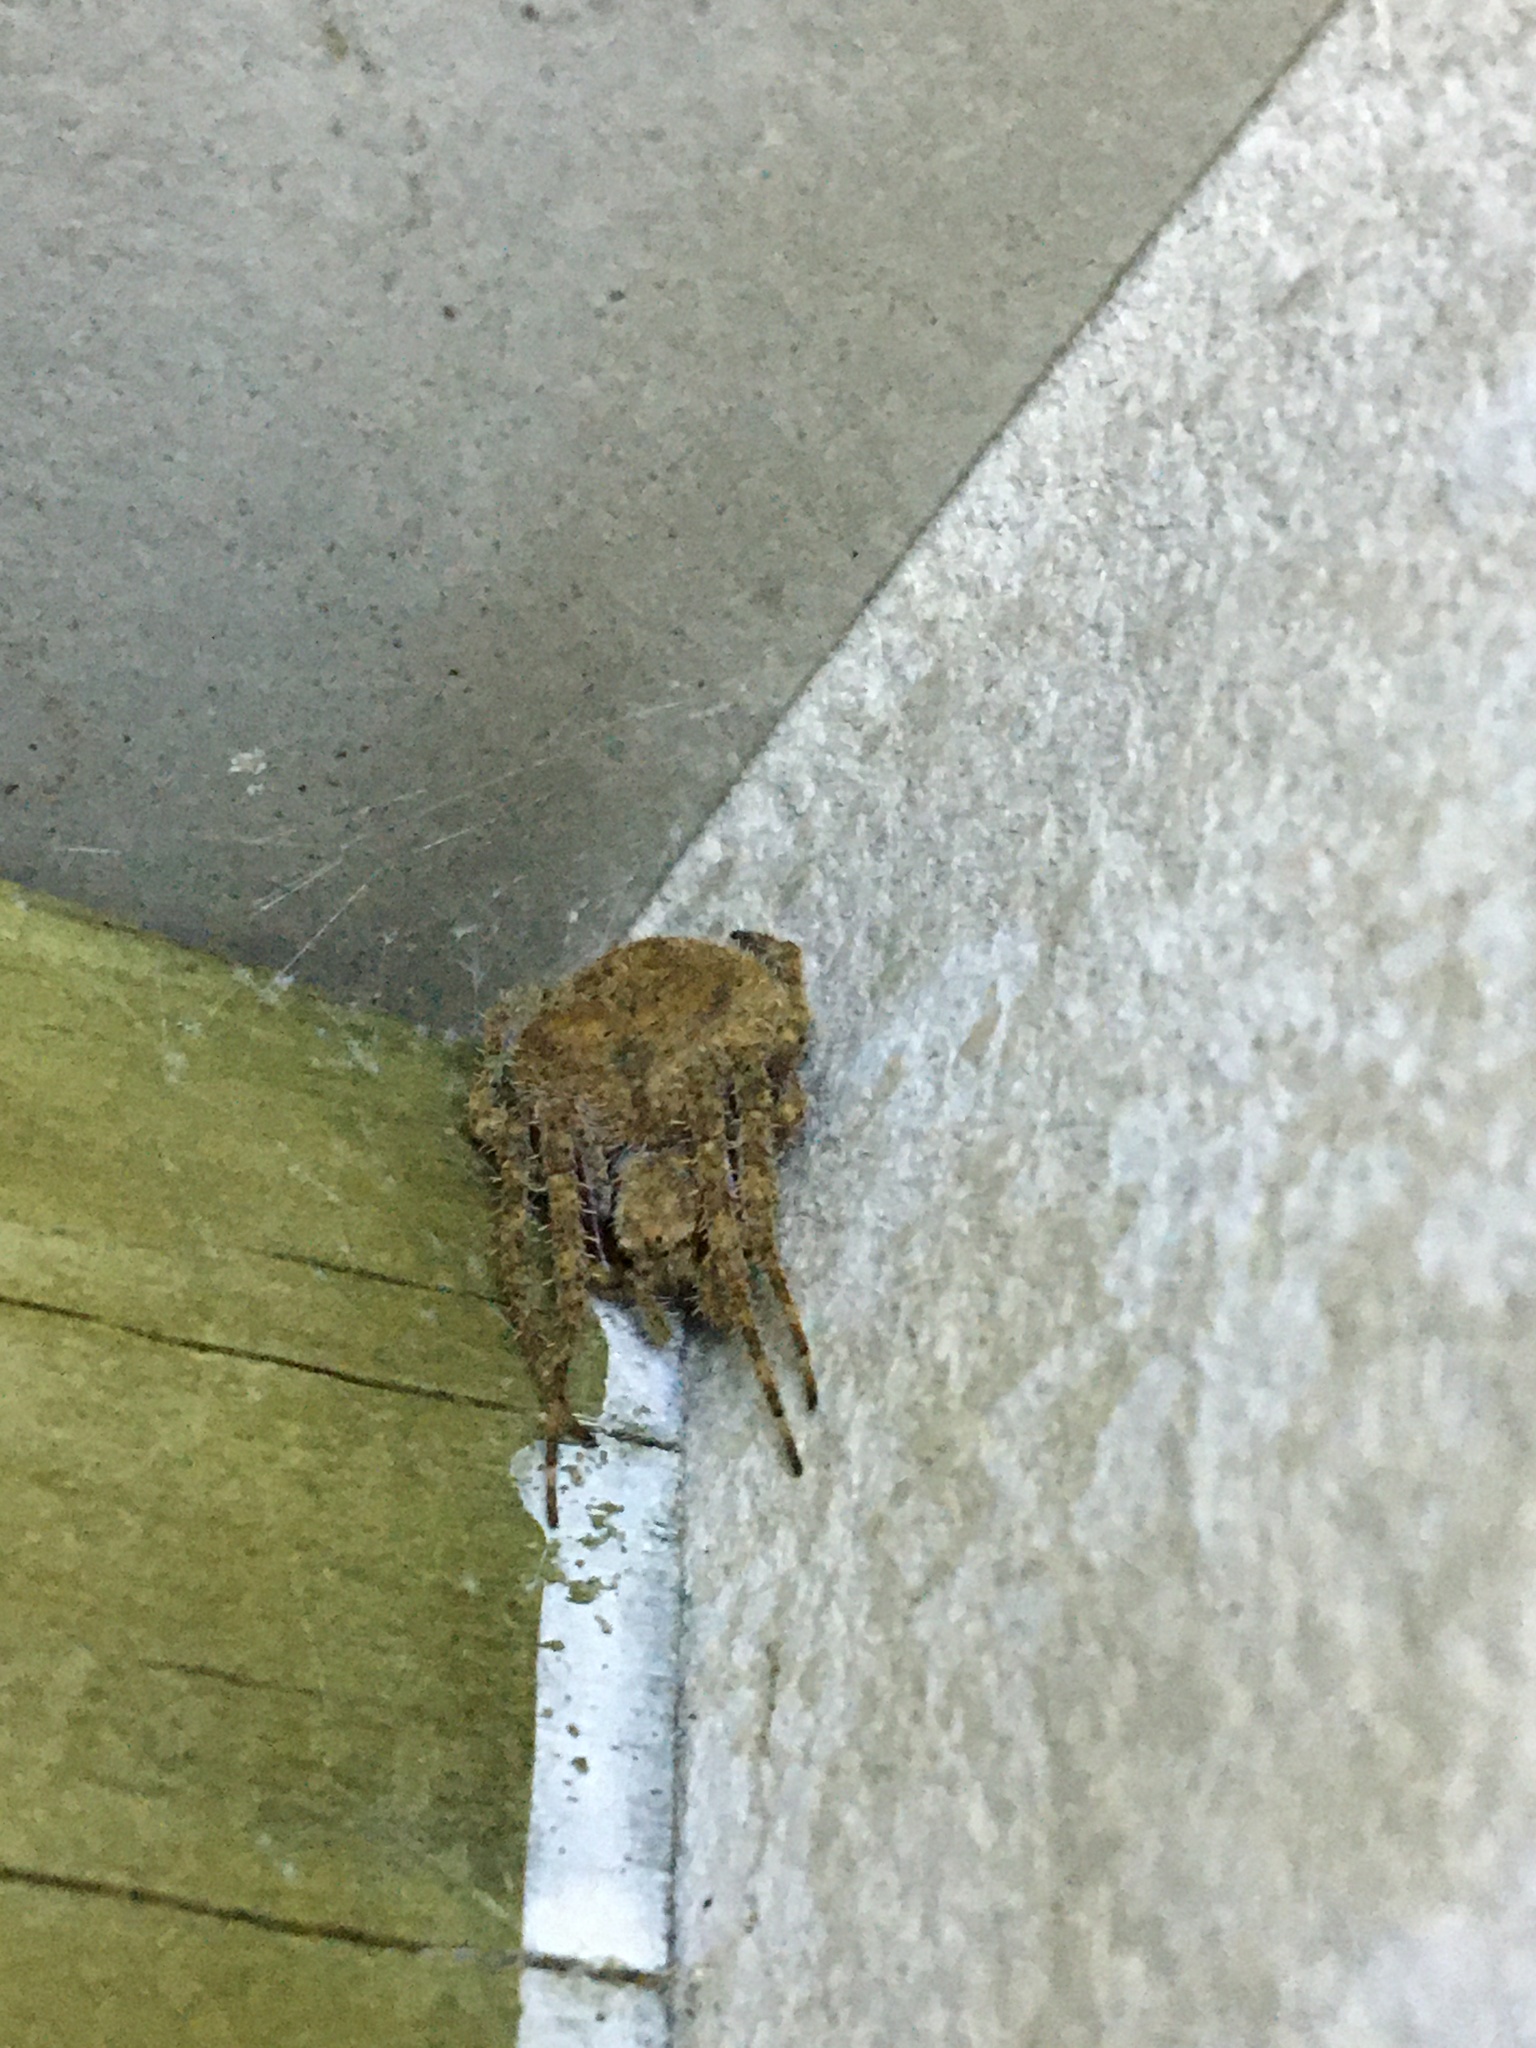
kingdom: Animalia
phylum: Arthropoda
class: Arachnida
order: Araneae
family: Araneidae
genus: Neoscona
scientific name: Neoscona
